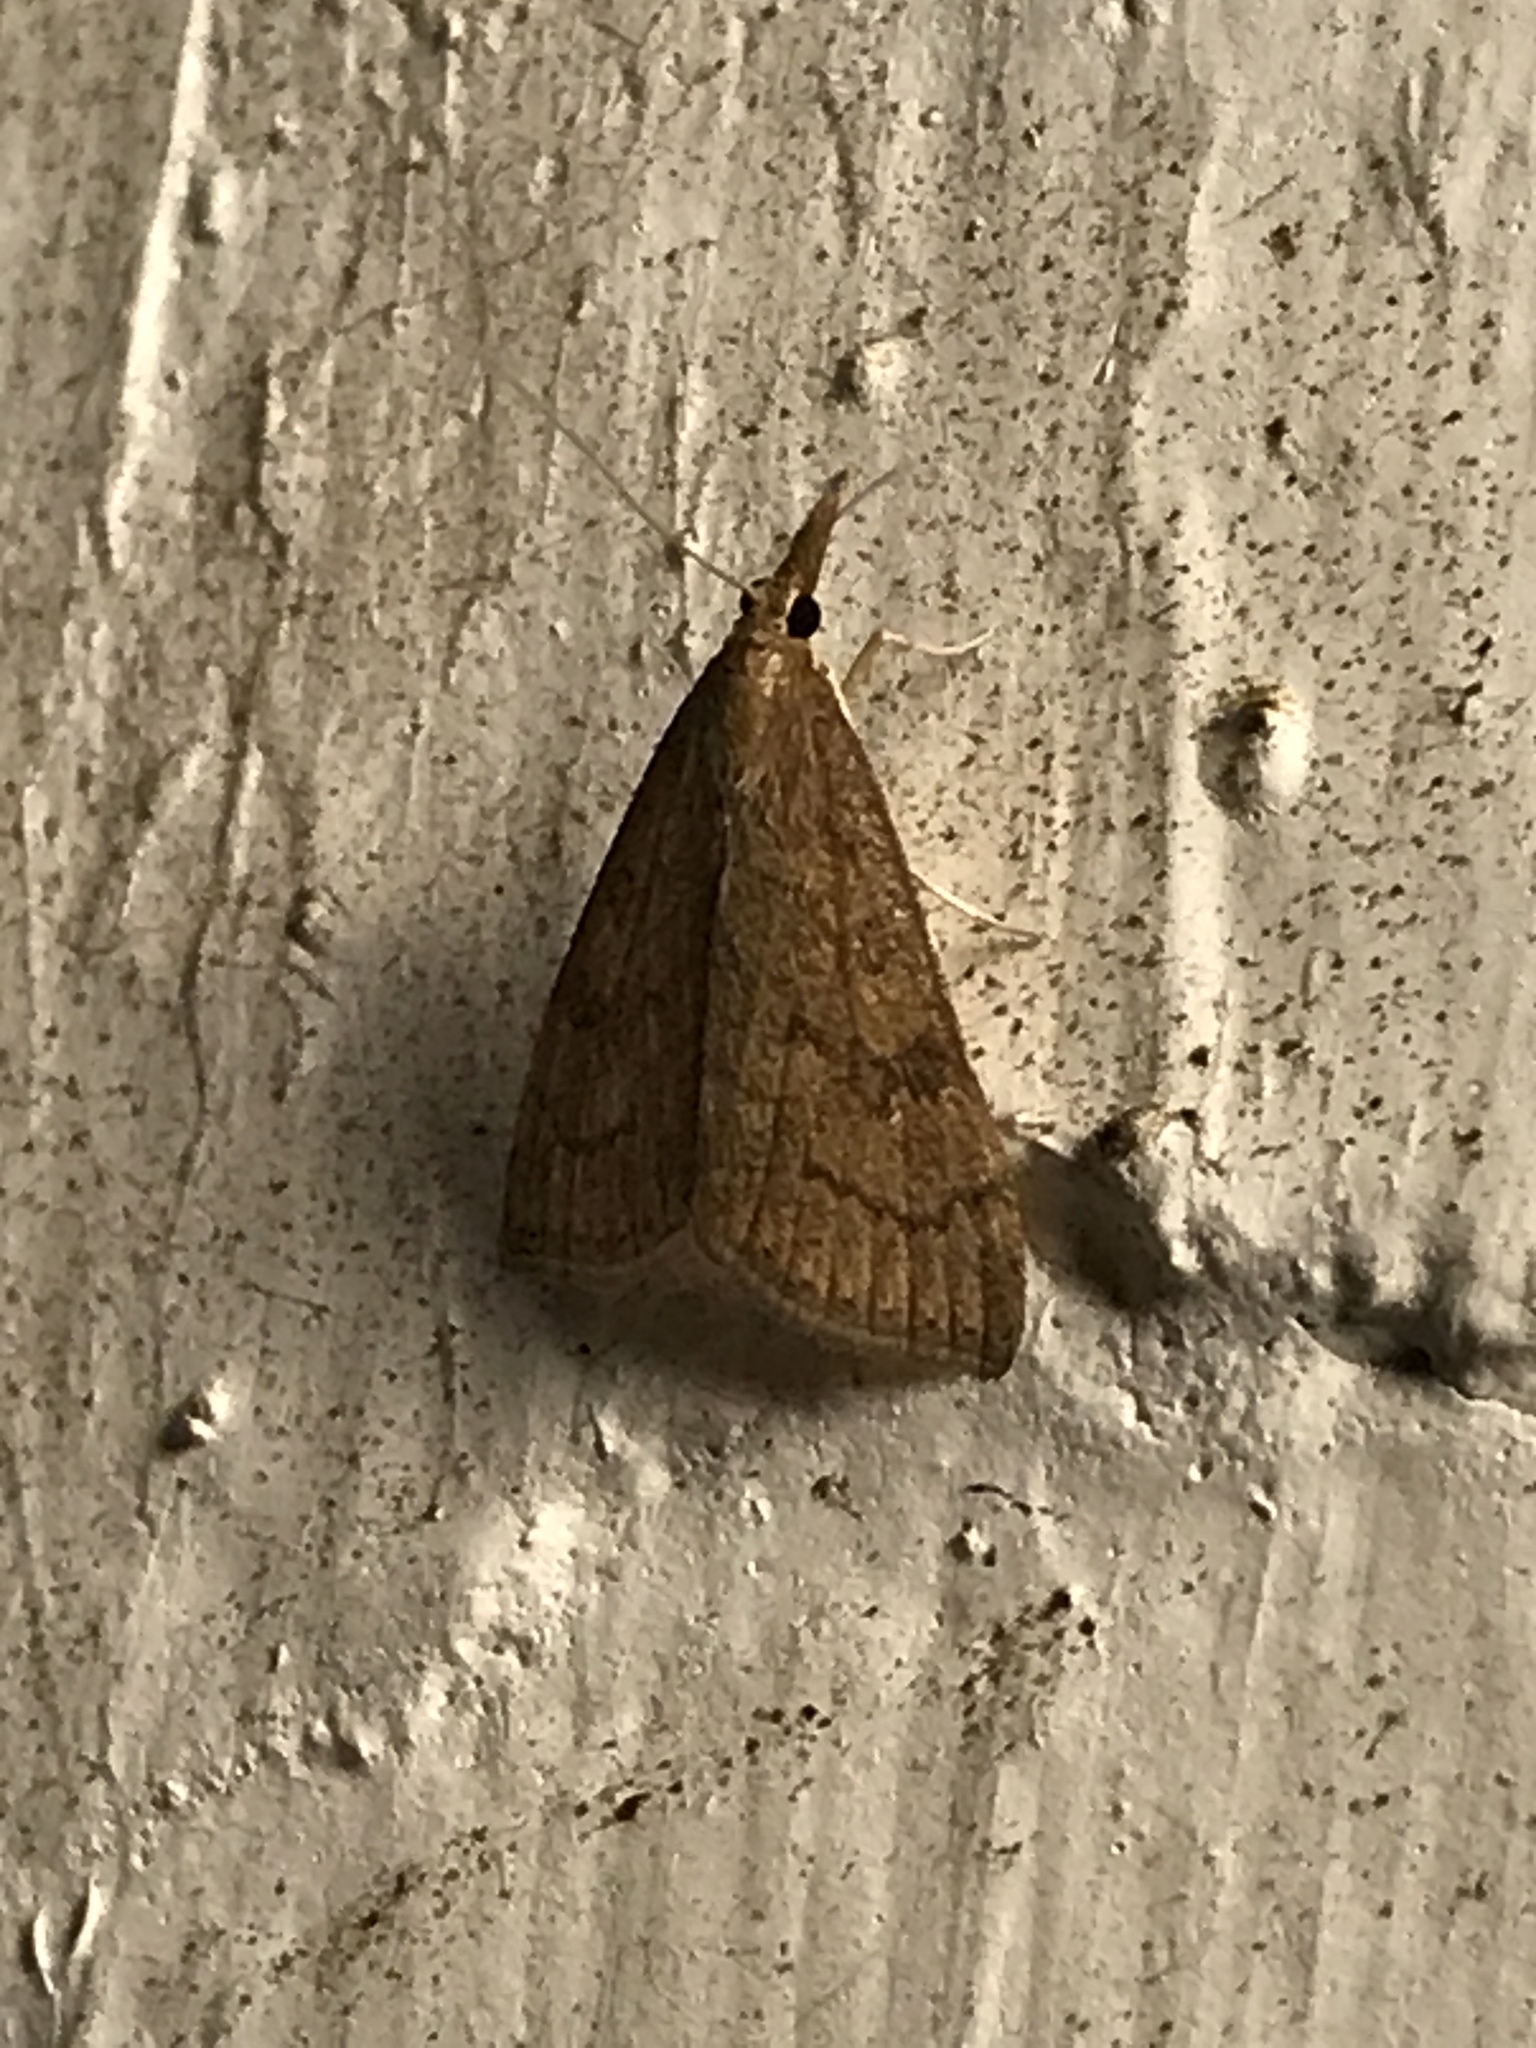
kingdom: Animalia
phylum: Arthropoda
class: Insecta
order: Lepidoptera
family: Crambidae
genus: Udea
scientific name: Udea rubigalis
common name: Celery leaftier moth
